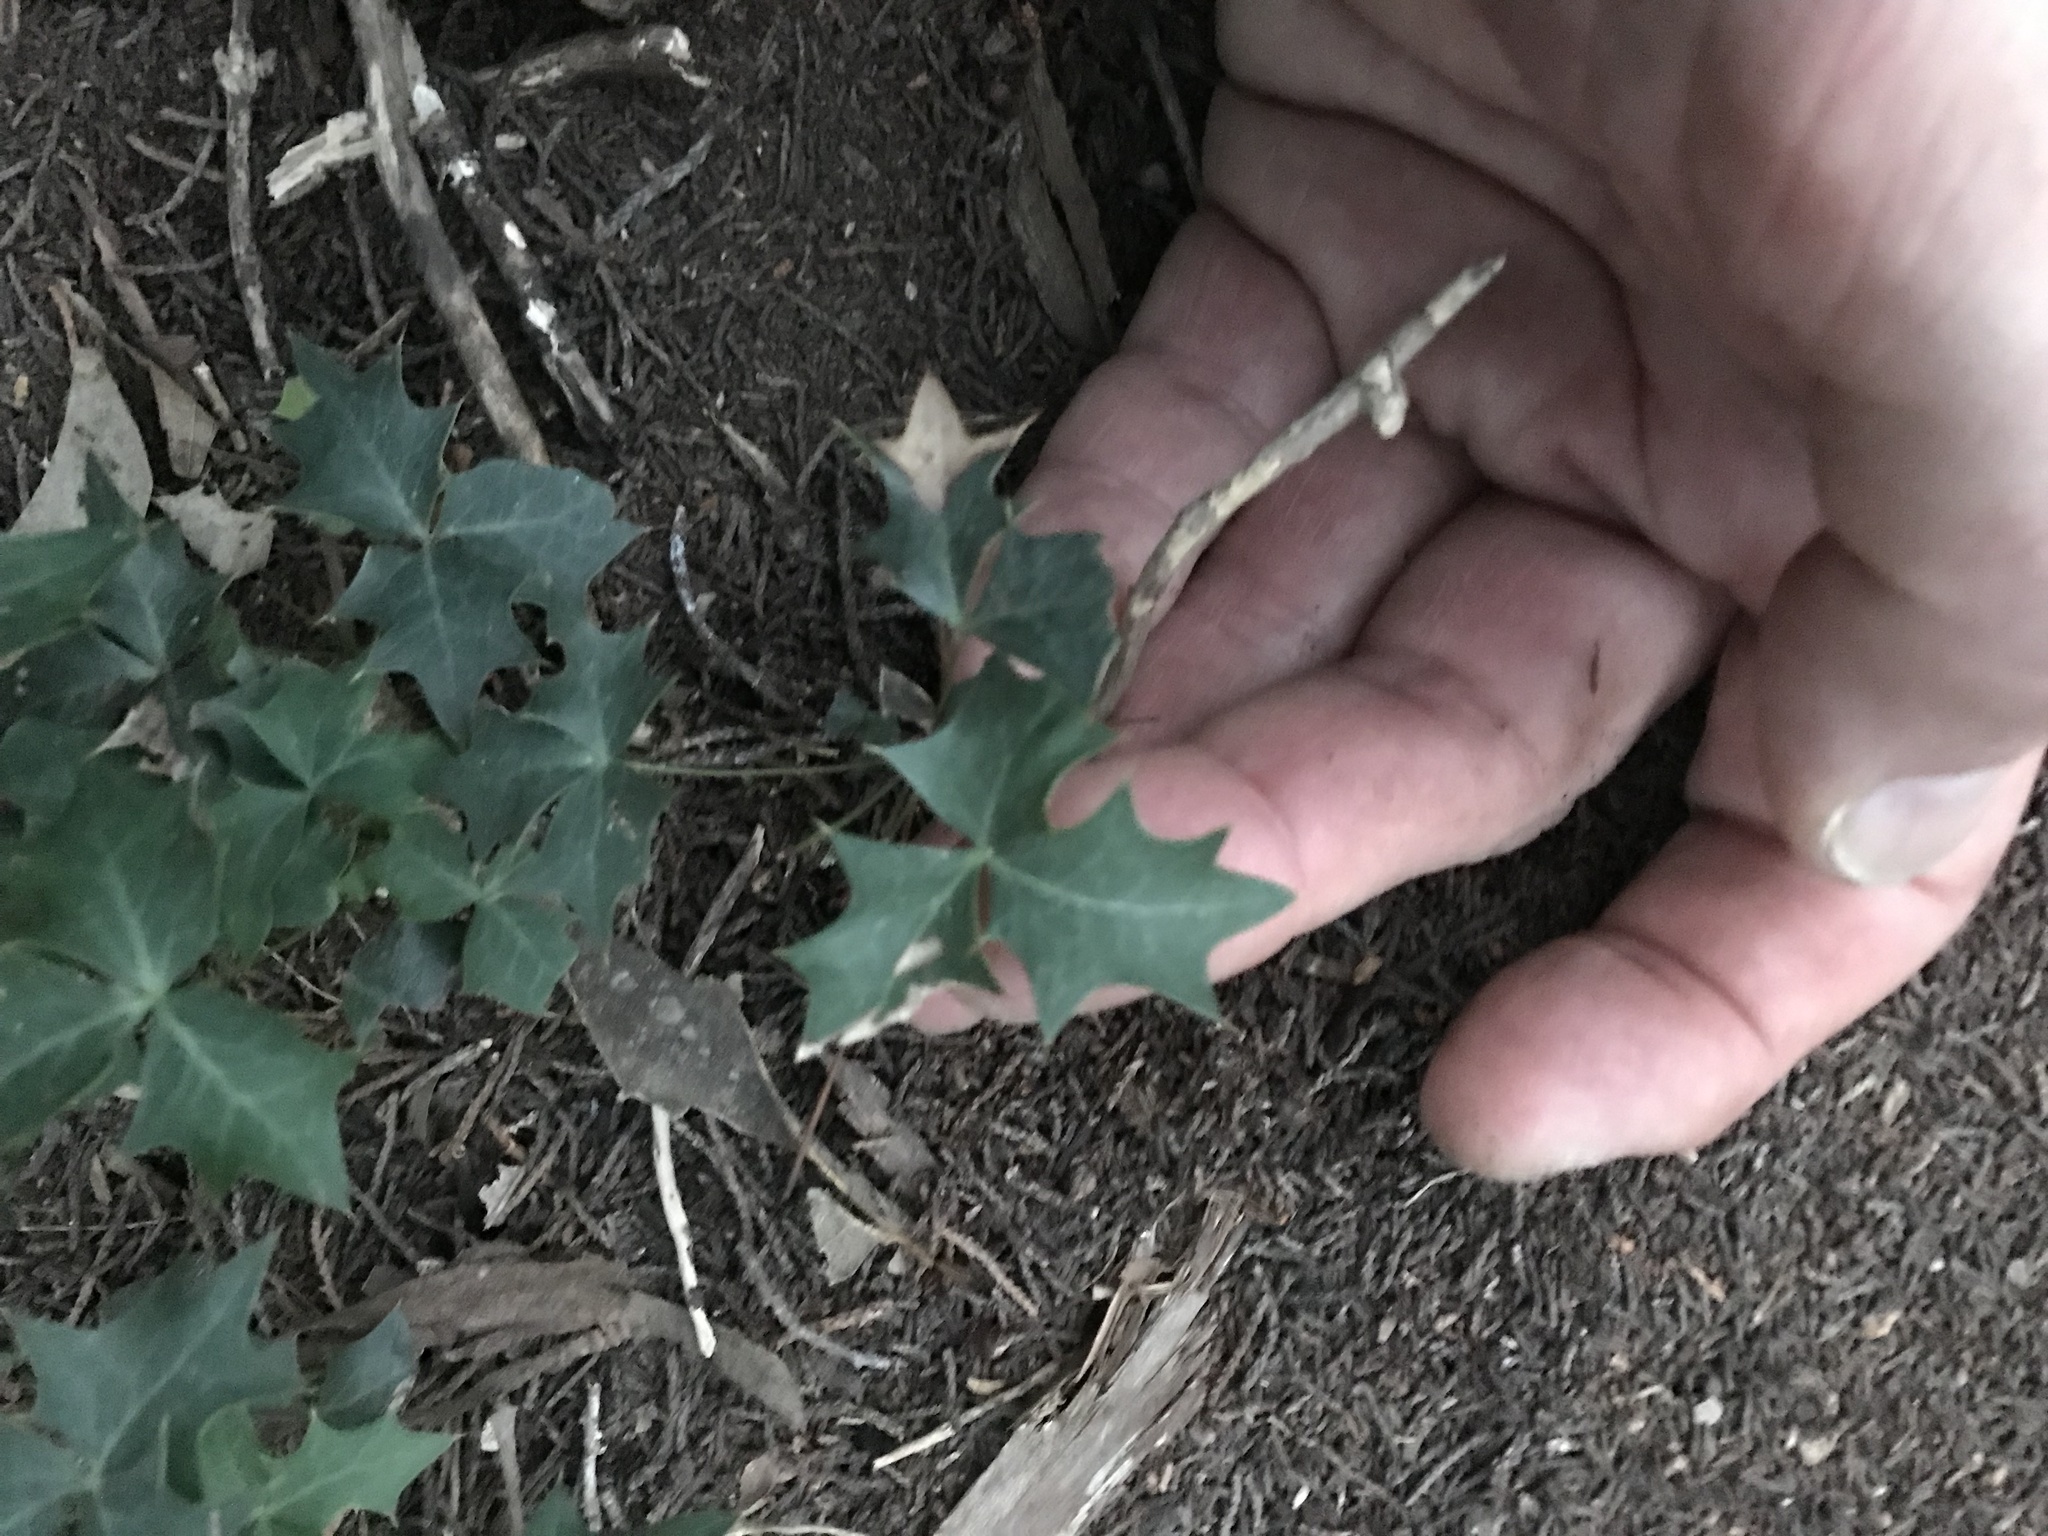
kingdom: Plantae
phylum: Tracheophyta
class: Magnoliopsida
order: Ranunculales
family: Berberidaceae
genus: Alloberberis
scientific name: Alloberberis trifoliolata
